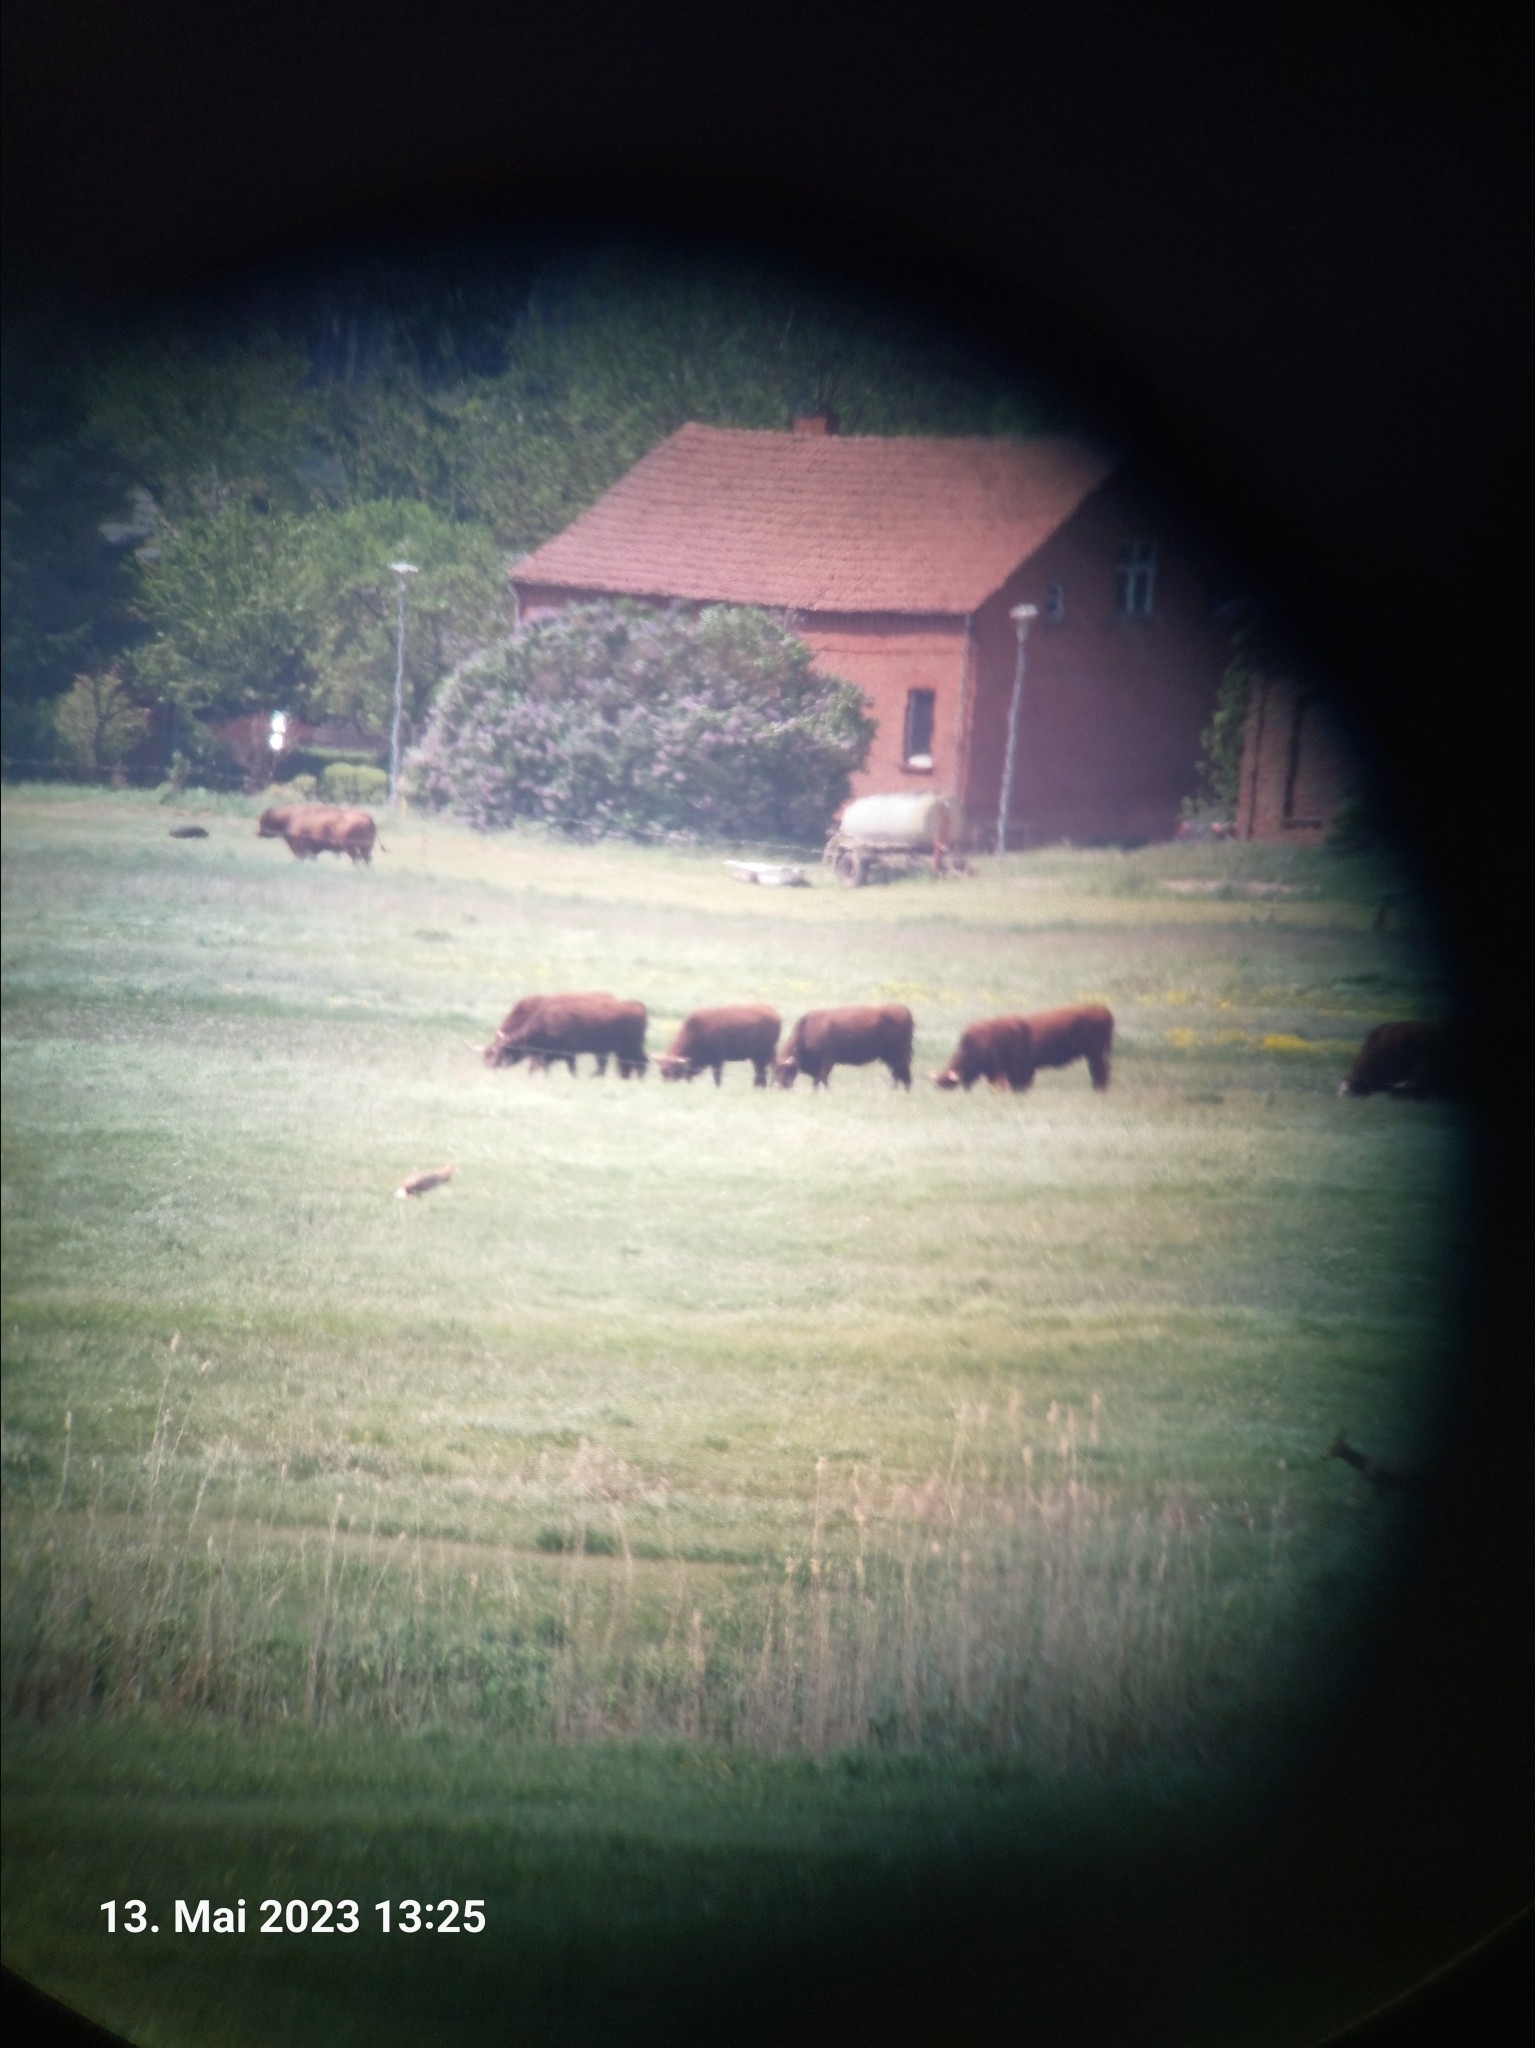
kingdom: Animalia
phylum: Chordata
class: Aves
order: Otidiformes
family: Otididae
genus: Otis
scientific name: Otis tarda
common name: Great bustard
